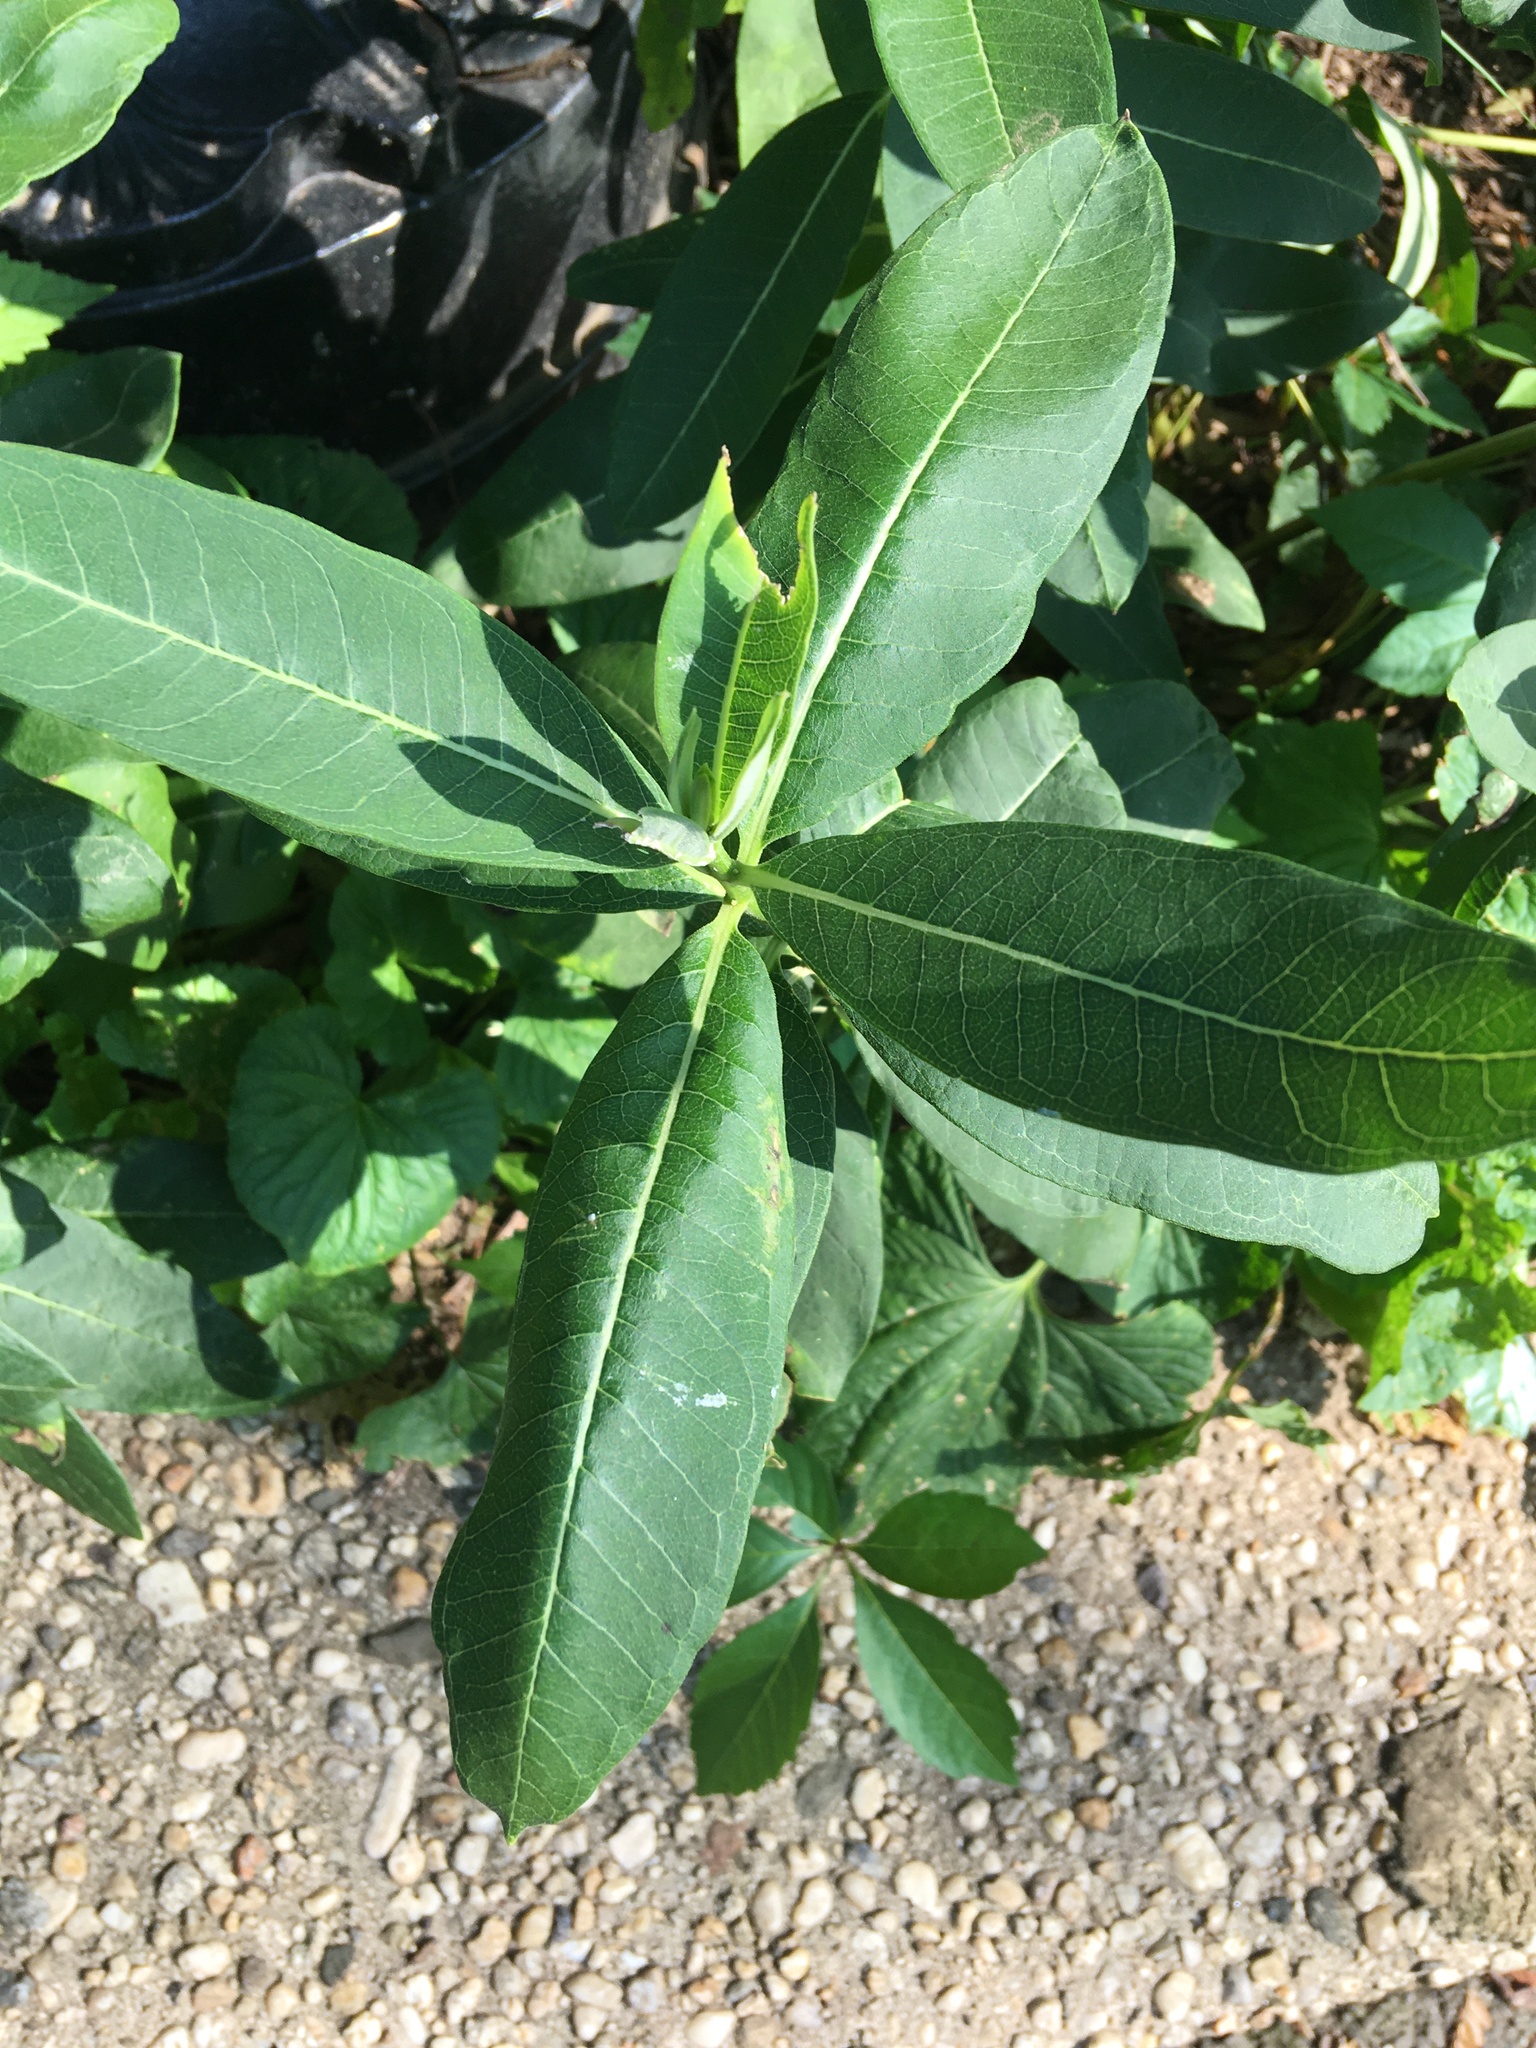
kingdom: Plantae
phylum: Tracheophyta
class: Magnoliopsida
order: Gentianales
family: Apocynaceae
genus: Asclepias
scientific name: Asclepias syriaca
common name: Common milkweed
